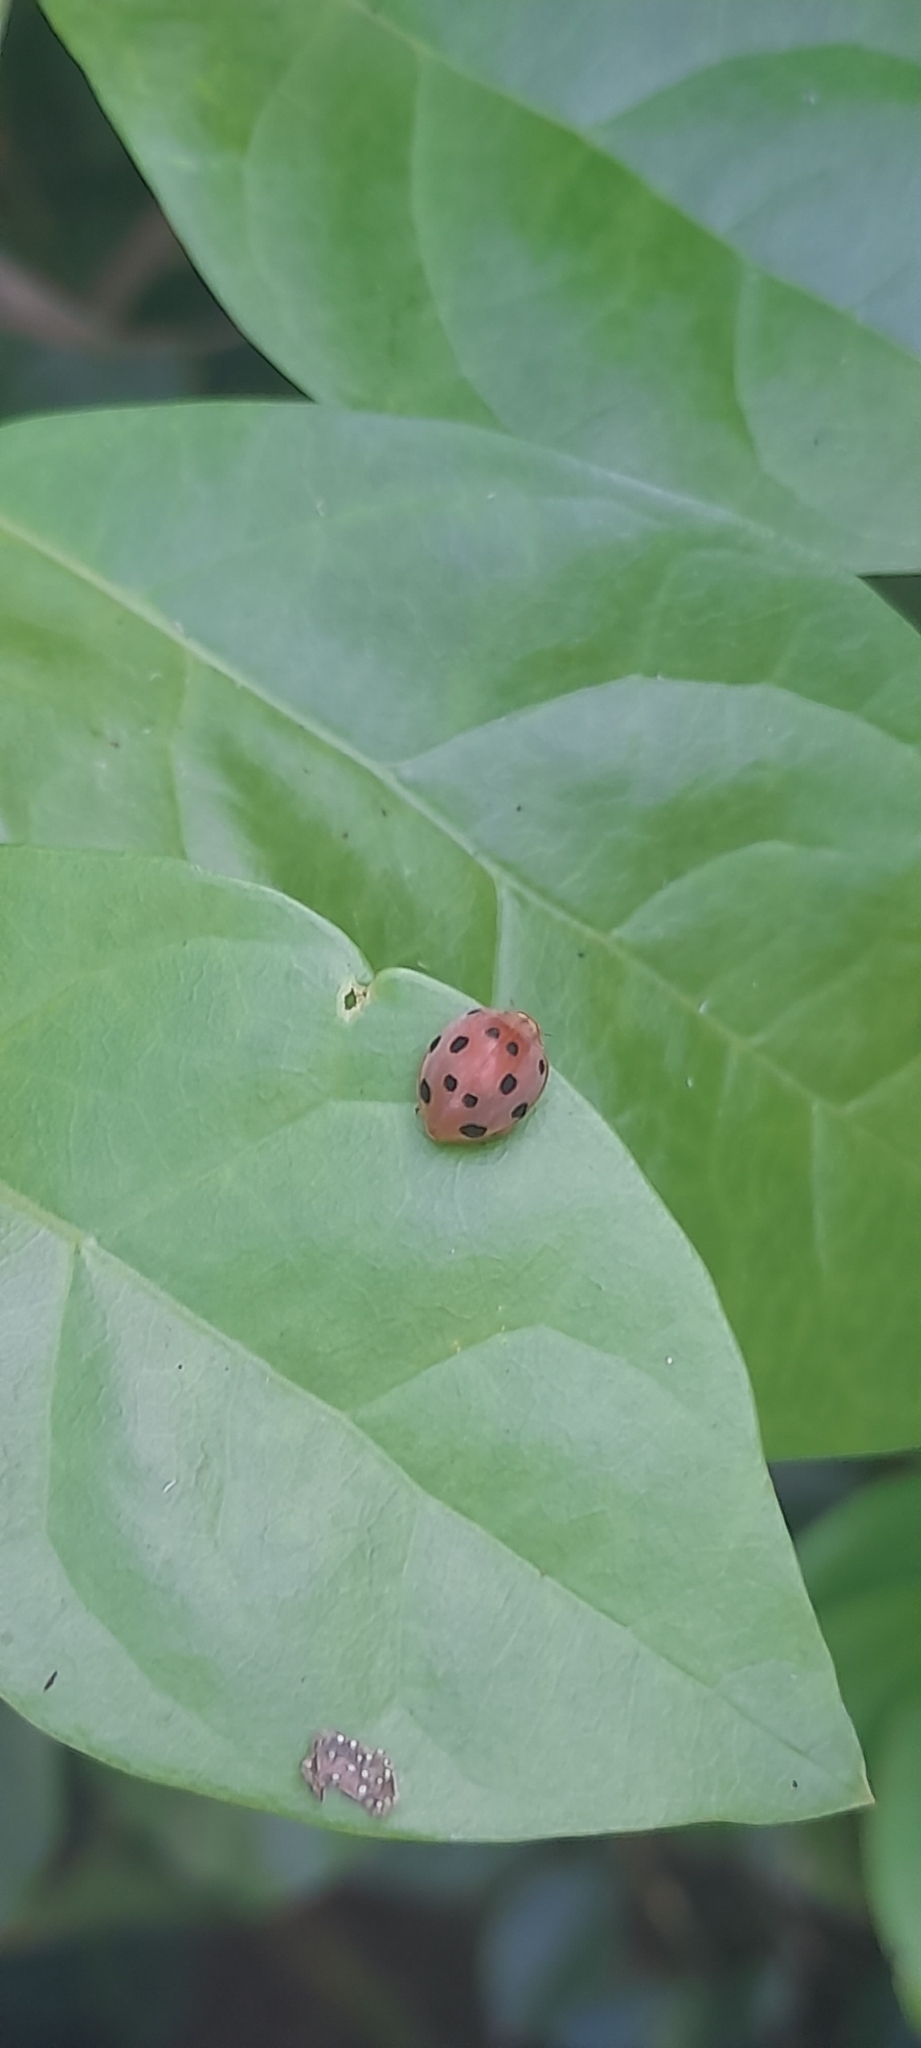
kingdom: Animalia
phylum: Arthropoda
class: Insecta
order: Coleoptera
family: Coccinellidae
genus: Henosepilachna
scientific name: Henosepilachna pusillanima
